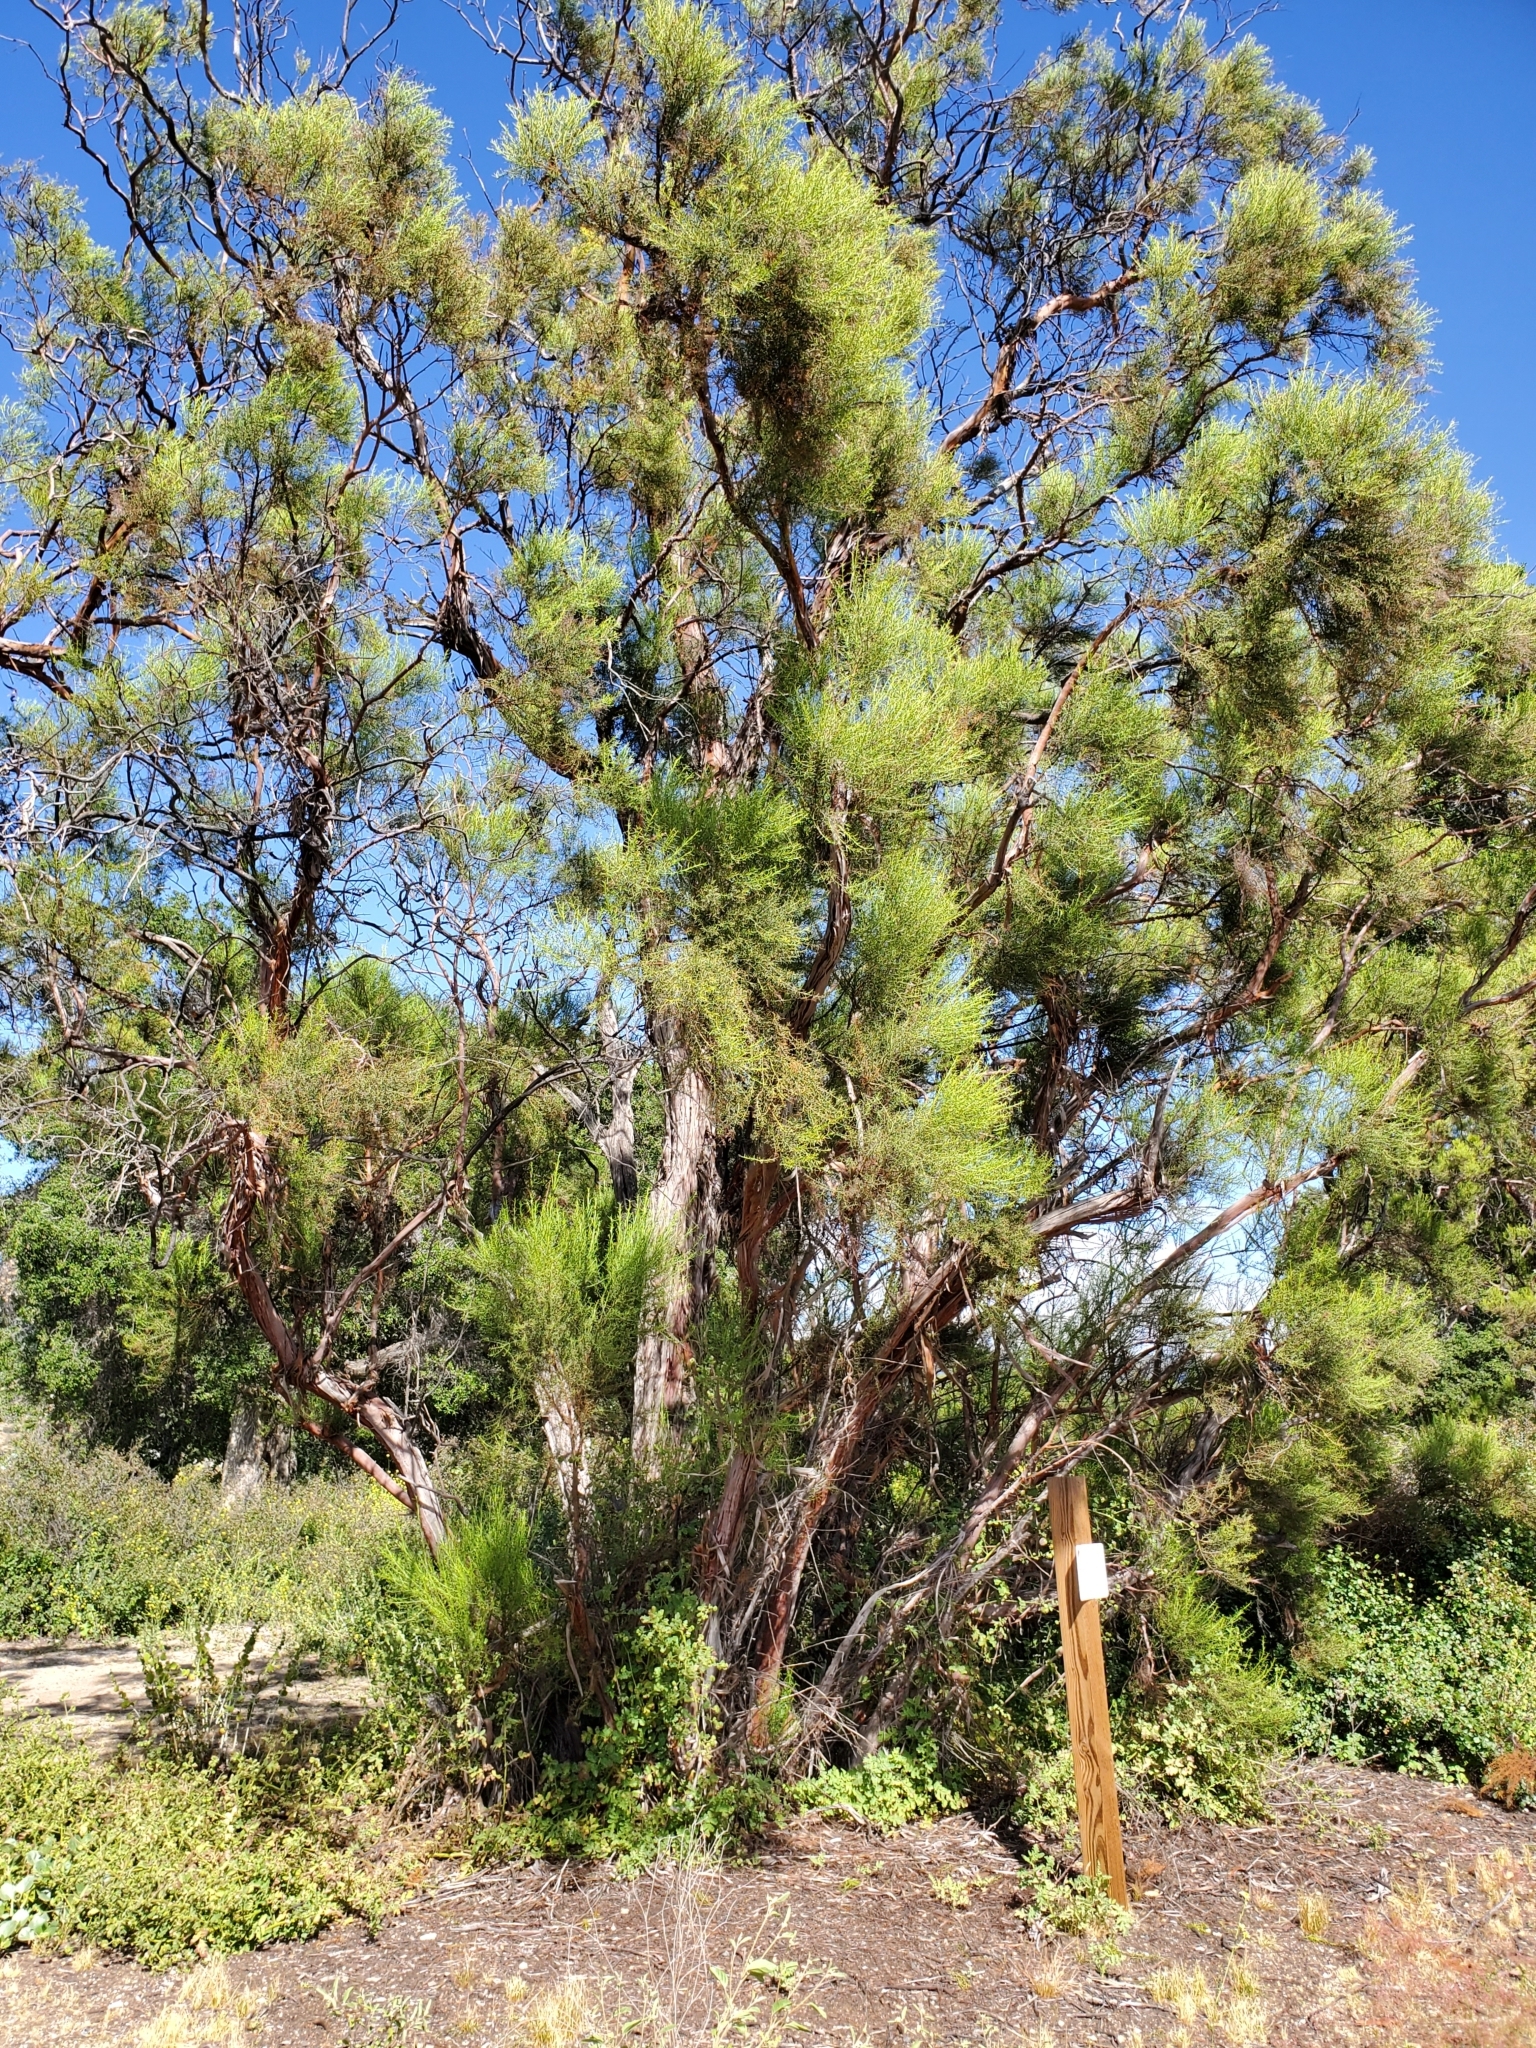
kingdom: Plantae
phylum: Tracheophyta
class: Magnoliopsida
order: Rosales
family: Rosaceae
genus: Adenostoma
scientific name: Adenostoma sparsifolium
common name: Red shank
